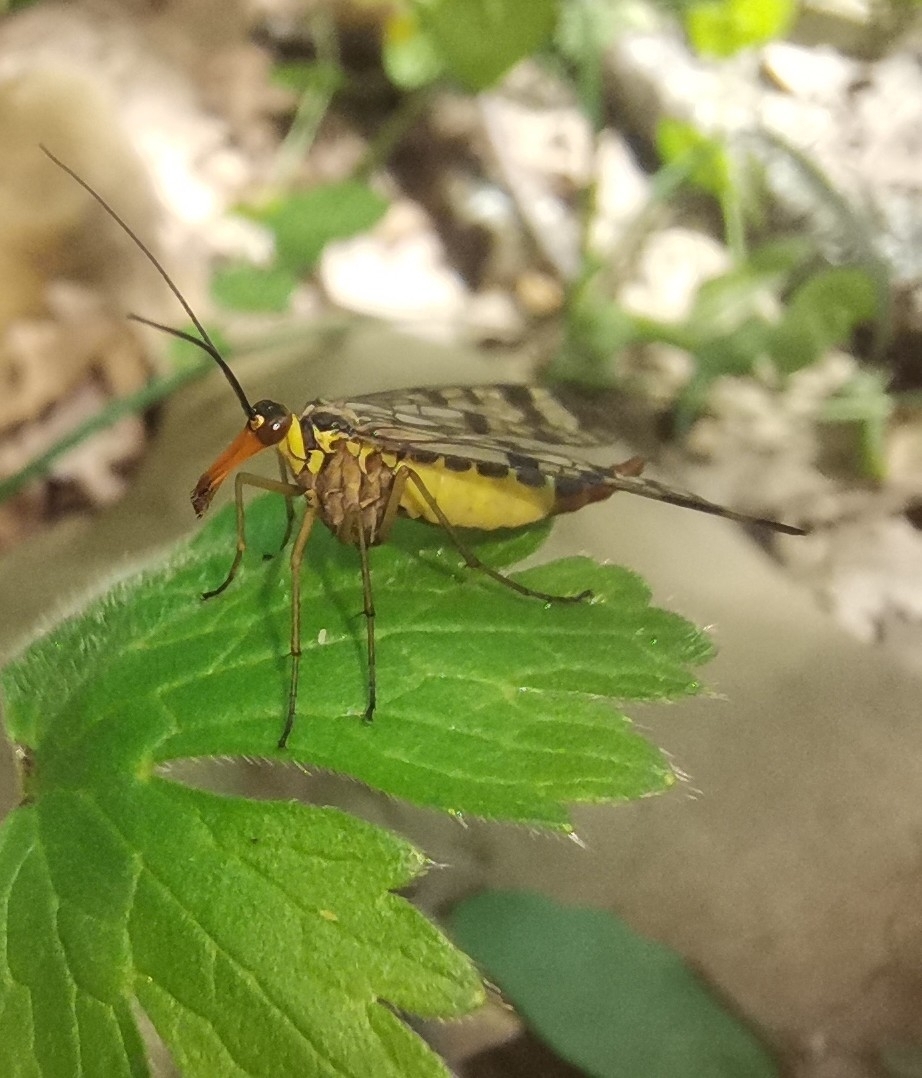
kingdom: Animalia
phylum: Arthropoda
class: Insecta
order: Mecoptera
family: Panorpidae
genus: Panorpa
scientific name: Panorpa communis
